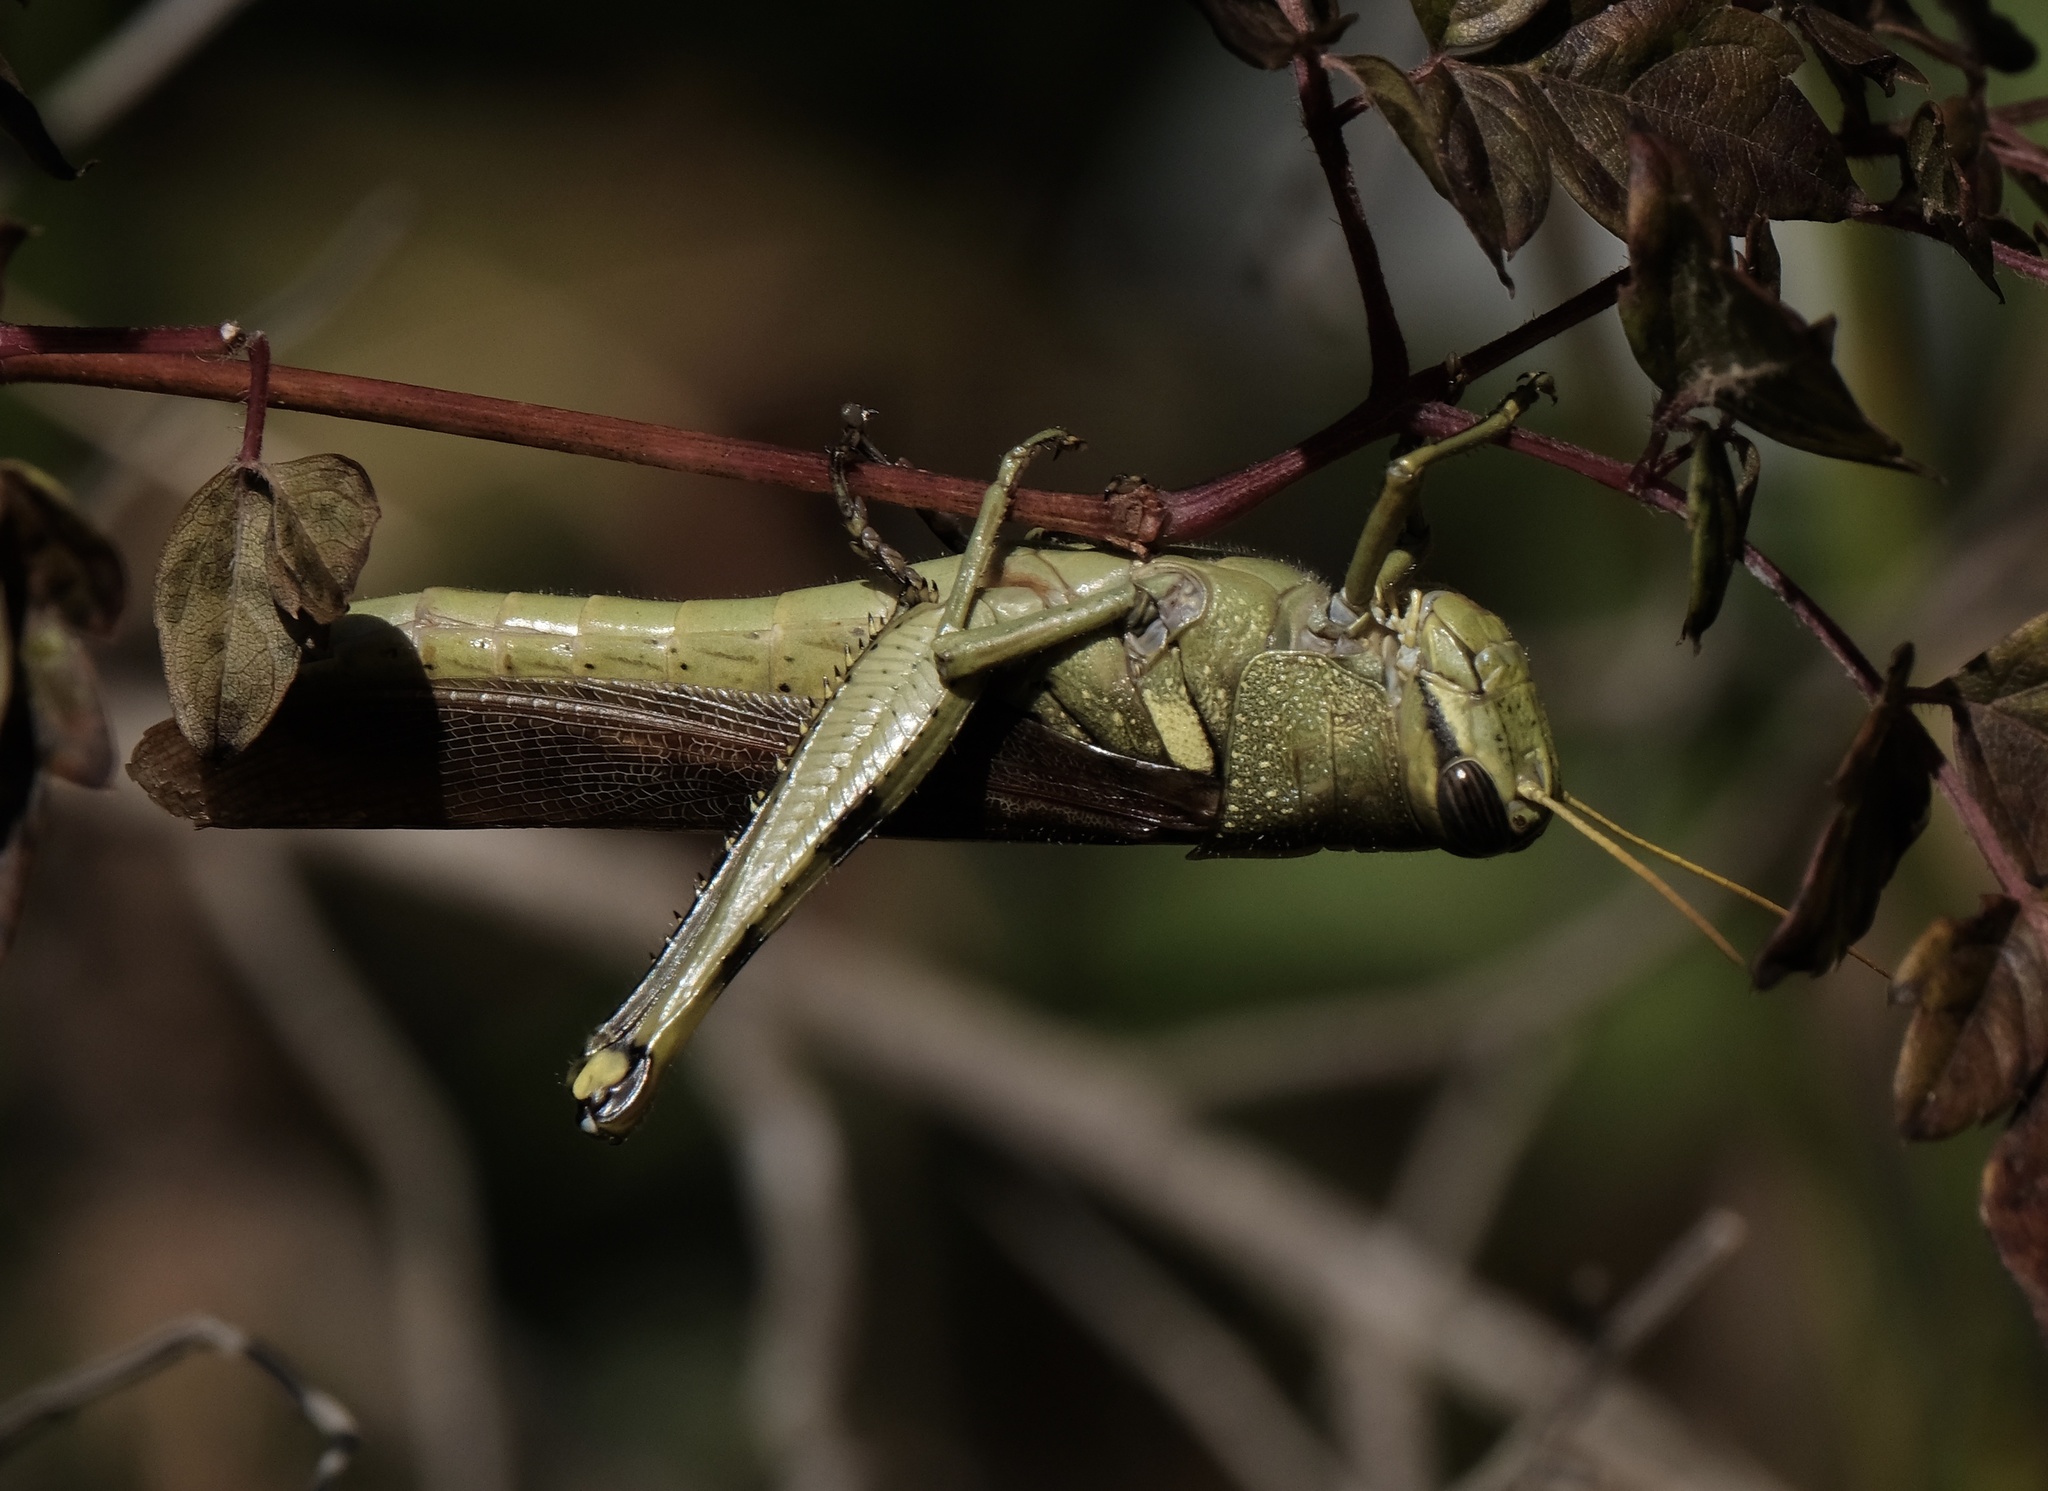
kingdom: Animalia
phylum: Arthropoda
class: Insecta
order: Orthoptera
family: Acrididae
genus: Schistocerca
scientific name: Schistocerca obscura
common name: Obscure bird grasshopper
